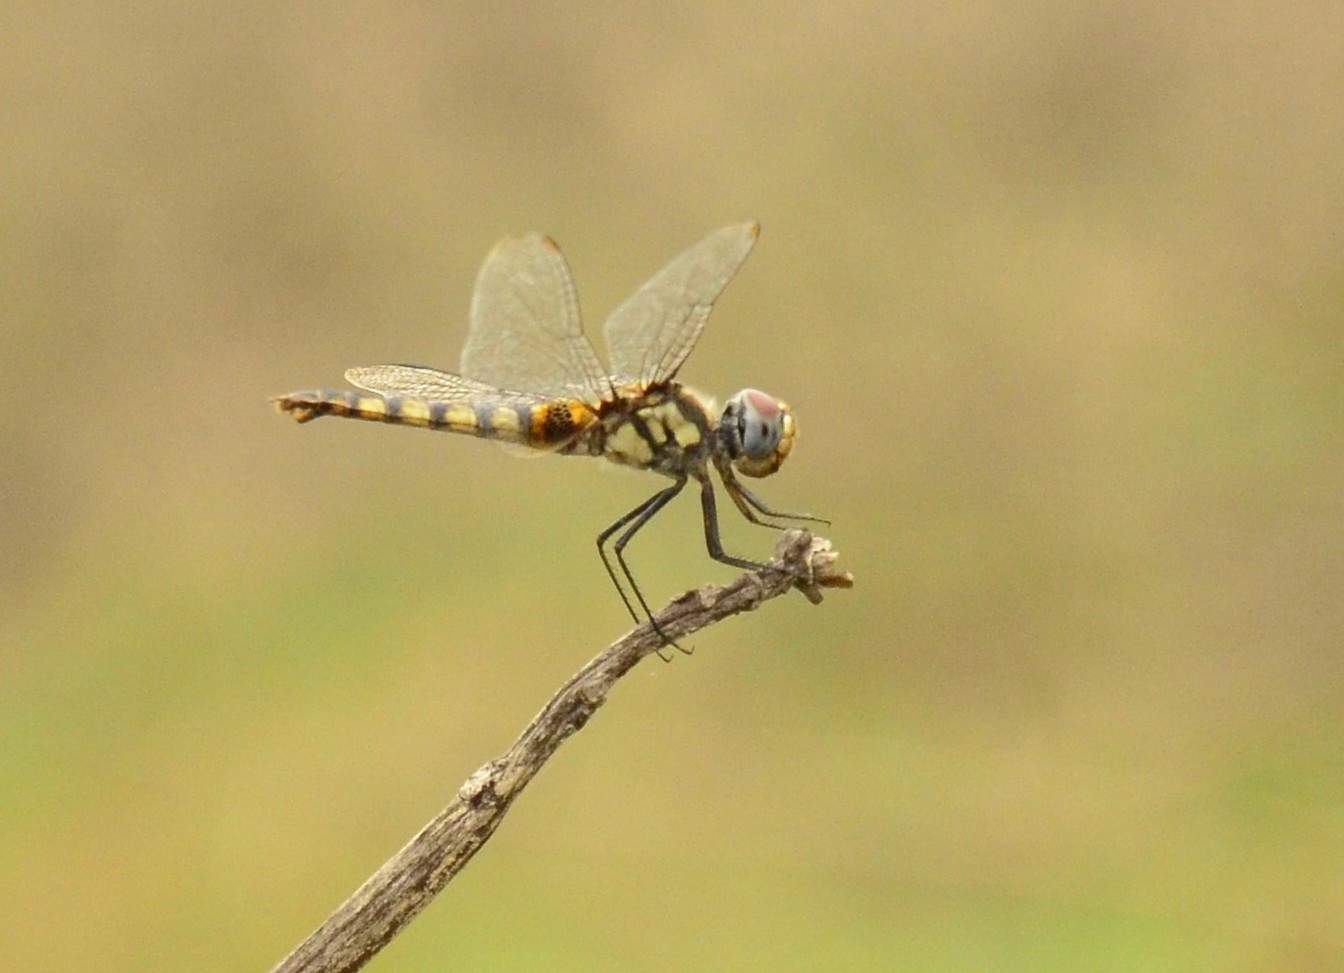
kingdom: Animalia
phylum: Arthropoda
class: Insecta
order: Odonata
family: Libellulidae
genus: Urothemis
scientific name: Urothemis signata
